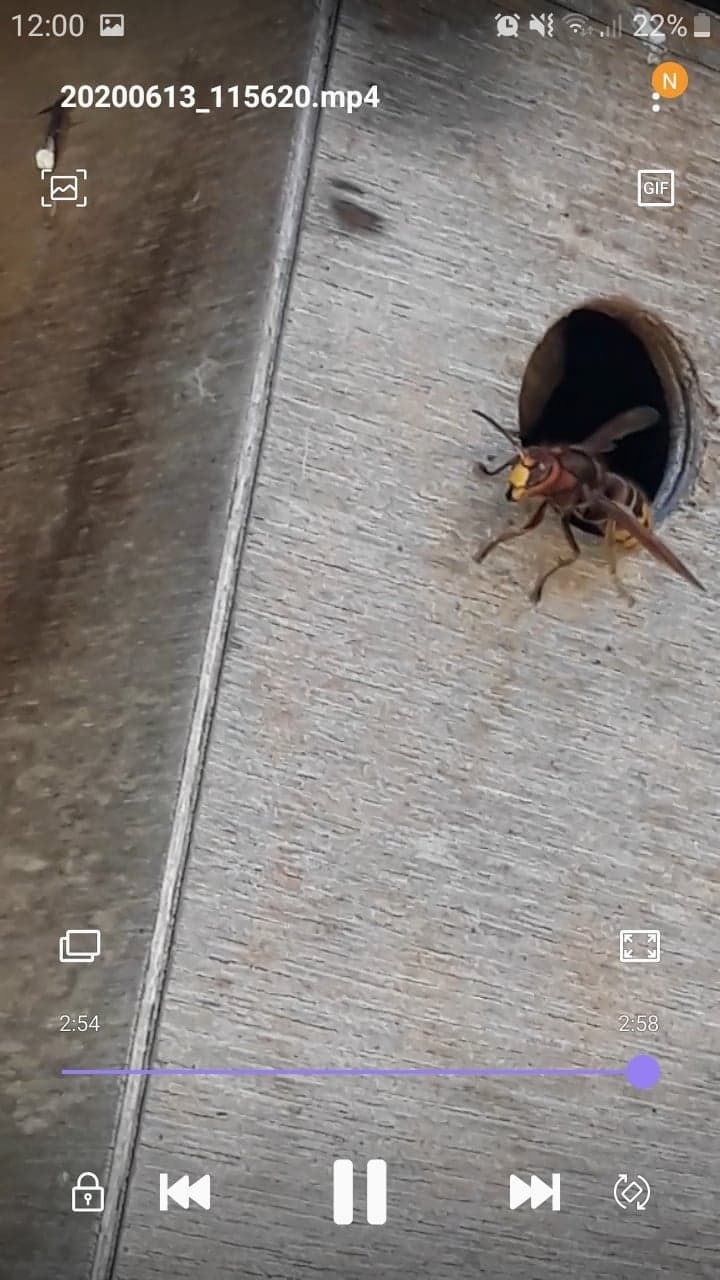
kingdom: Animalia
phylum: Arthropoda
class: Insecta
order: Hymenoptera
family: Vespidae
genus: Vespa
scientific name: Vespa crabro
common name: Hornet
